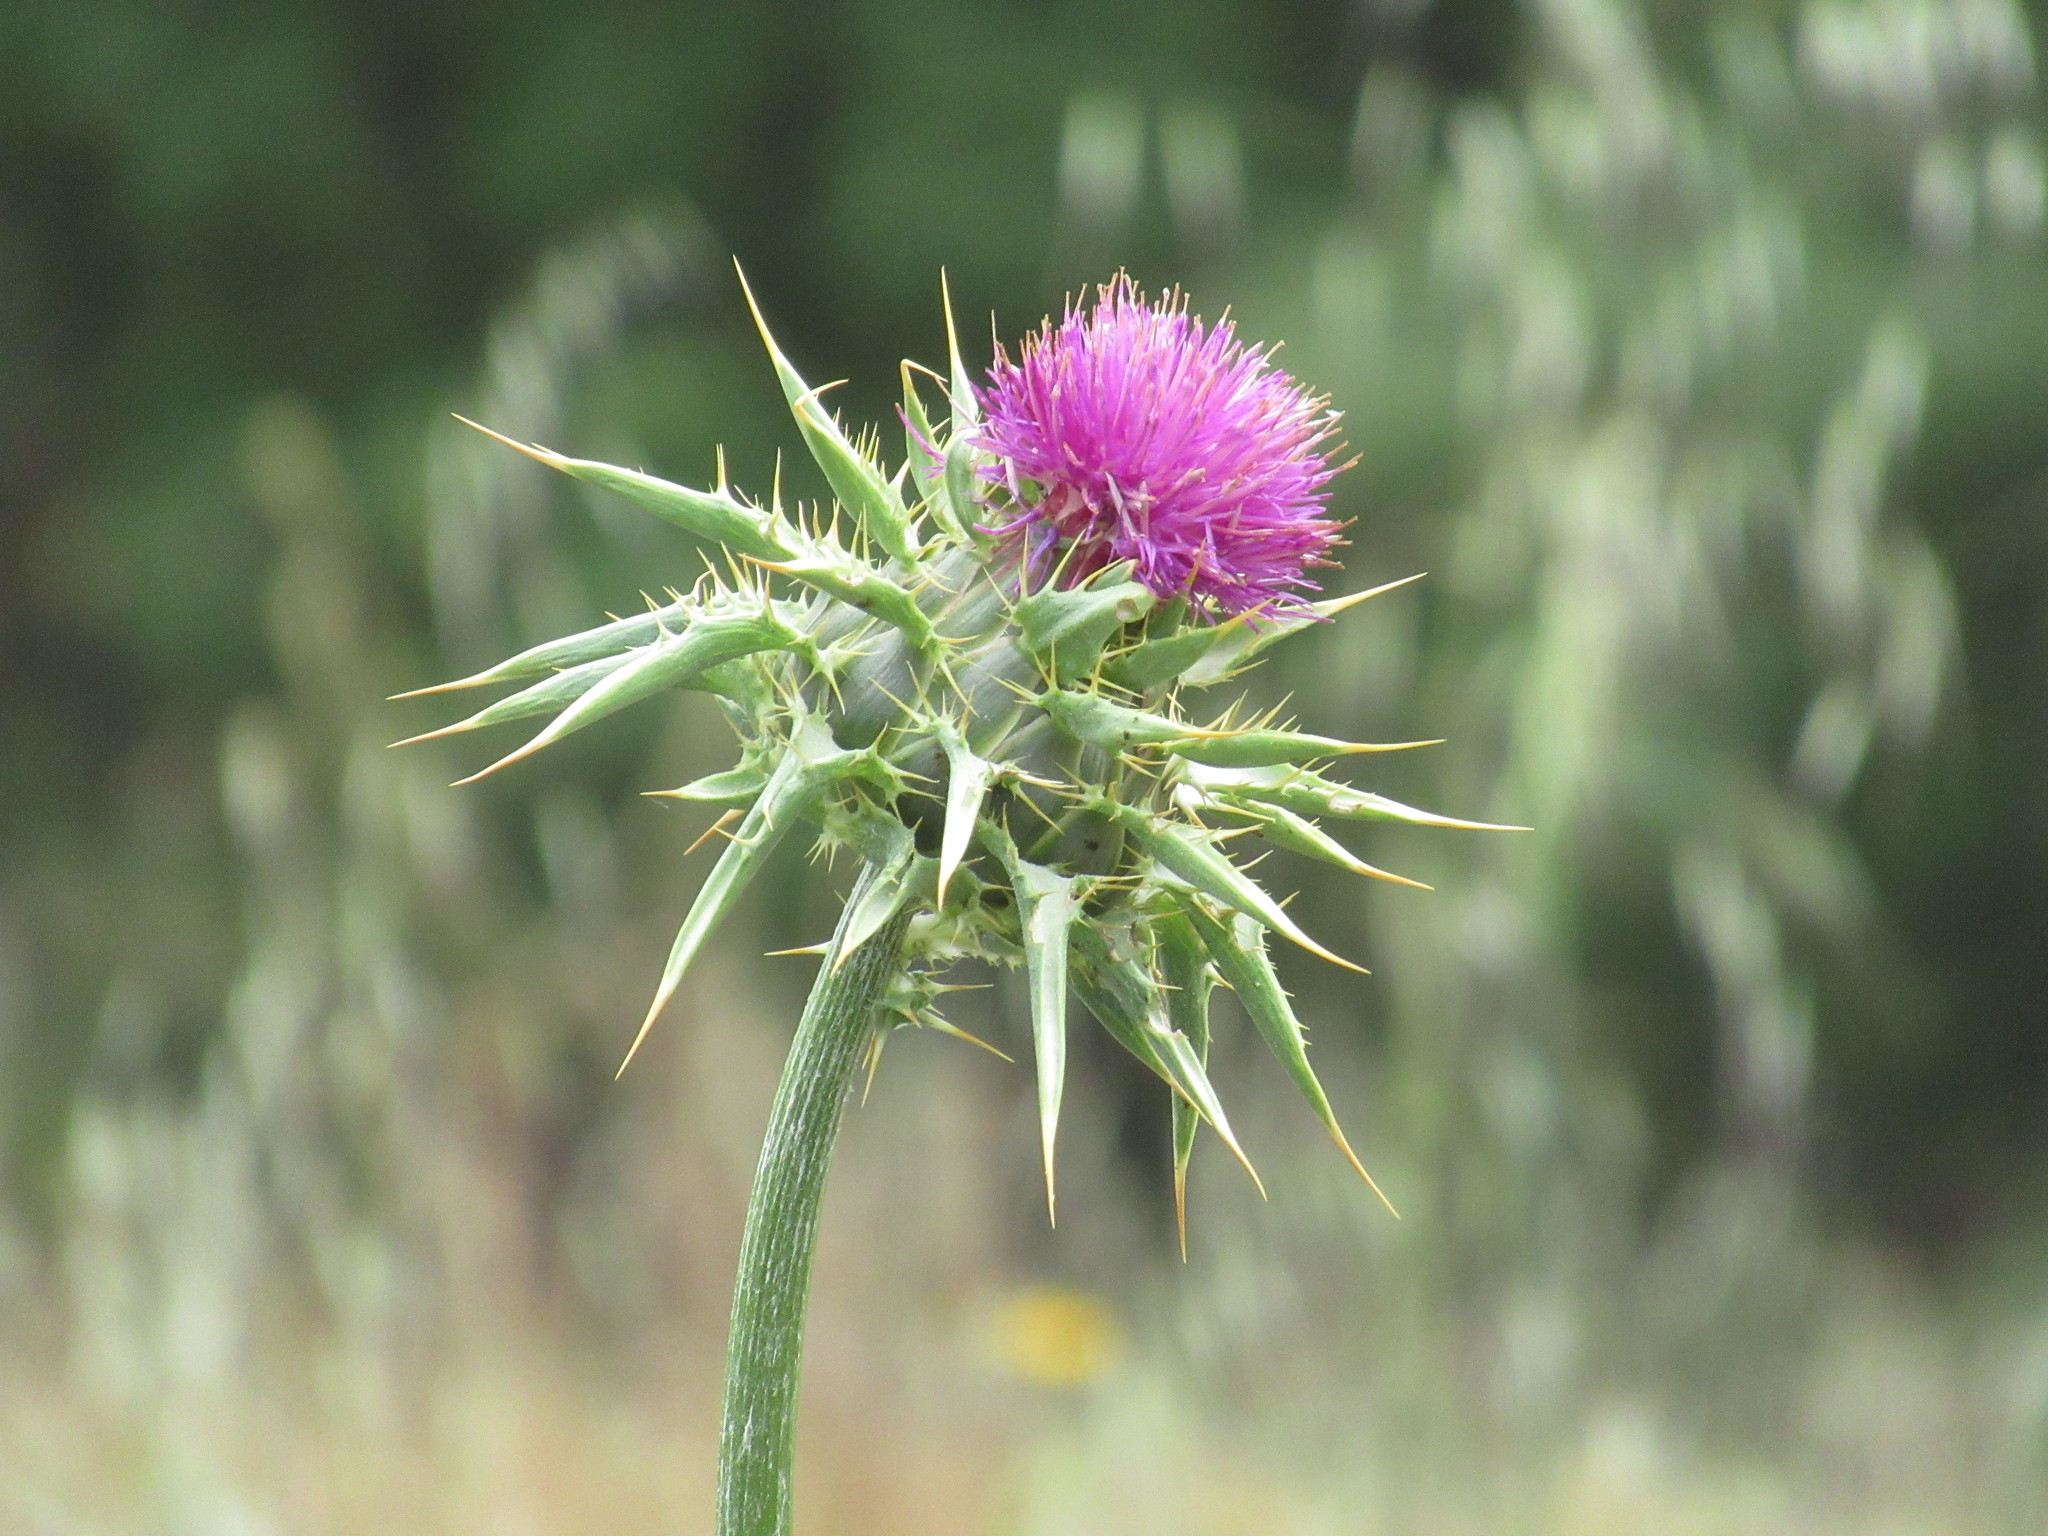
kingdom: Plantae
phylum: Tracheophyta
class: Magnoliopsida
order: Asterales
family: Asteraceae
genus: Silybum
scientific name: Silybum marianum
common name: Milk thistle
